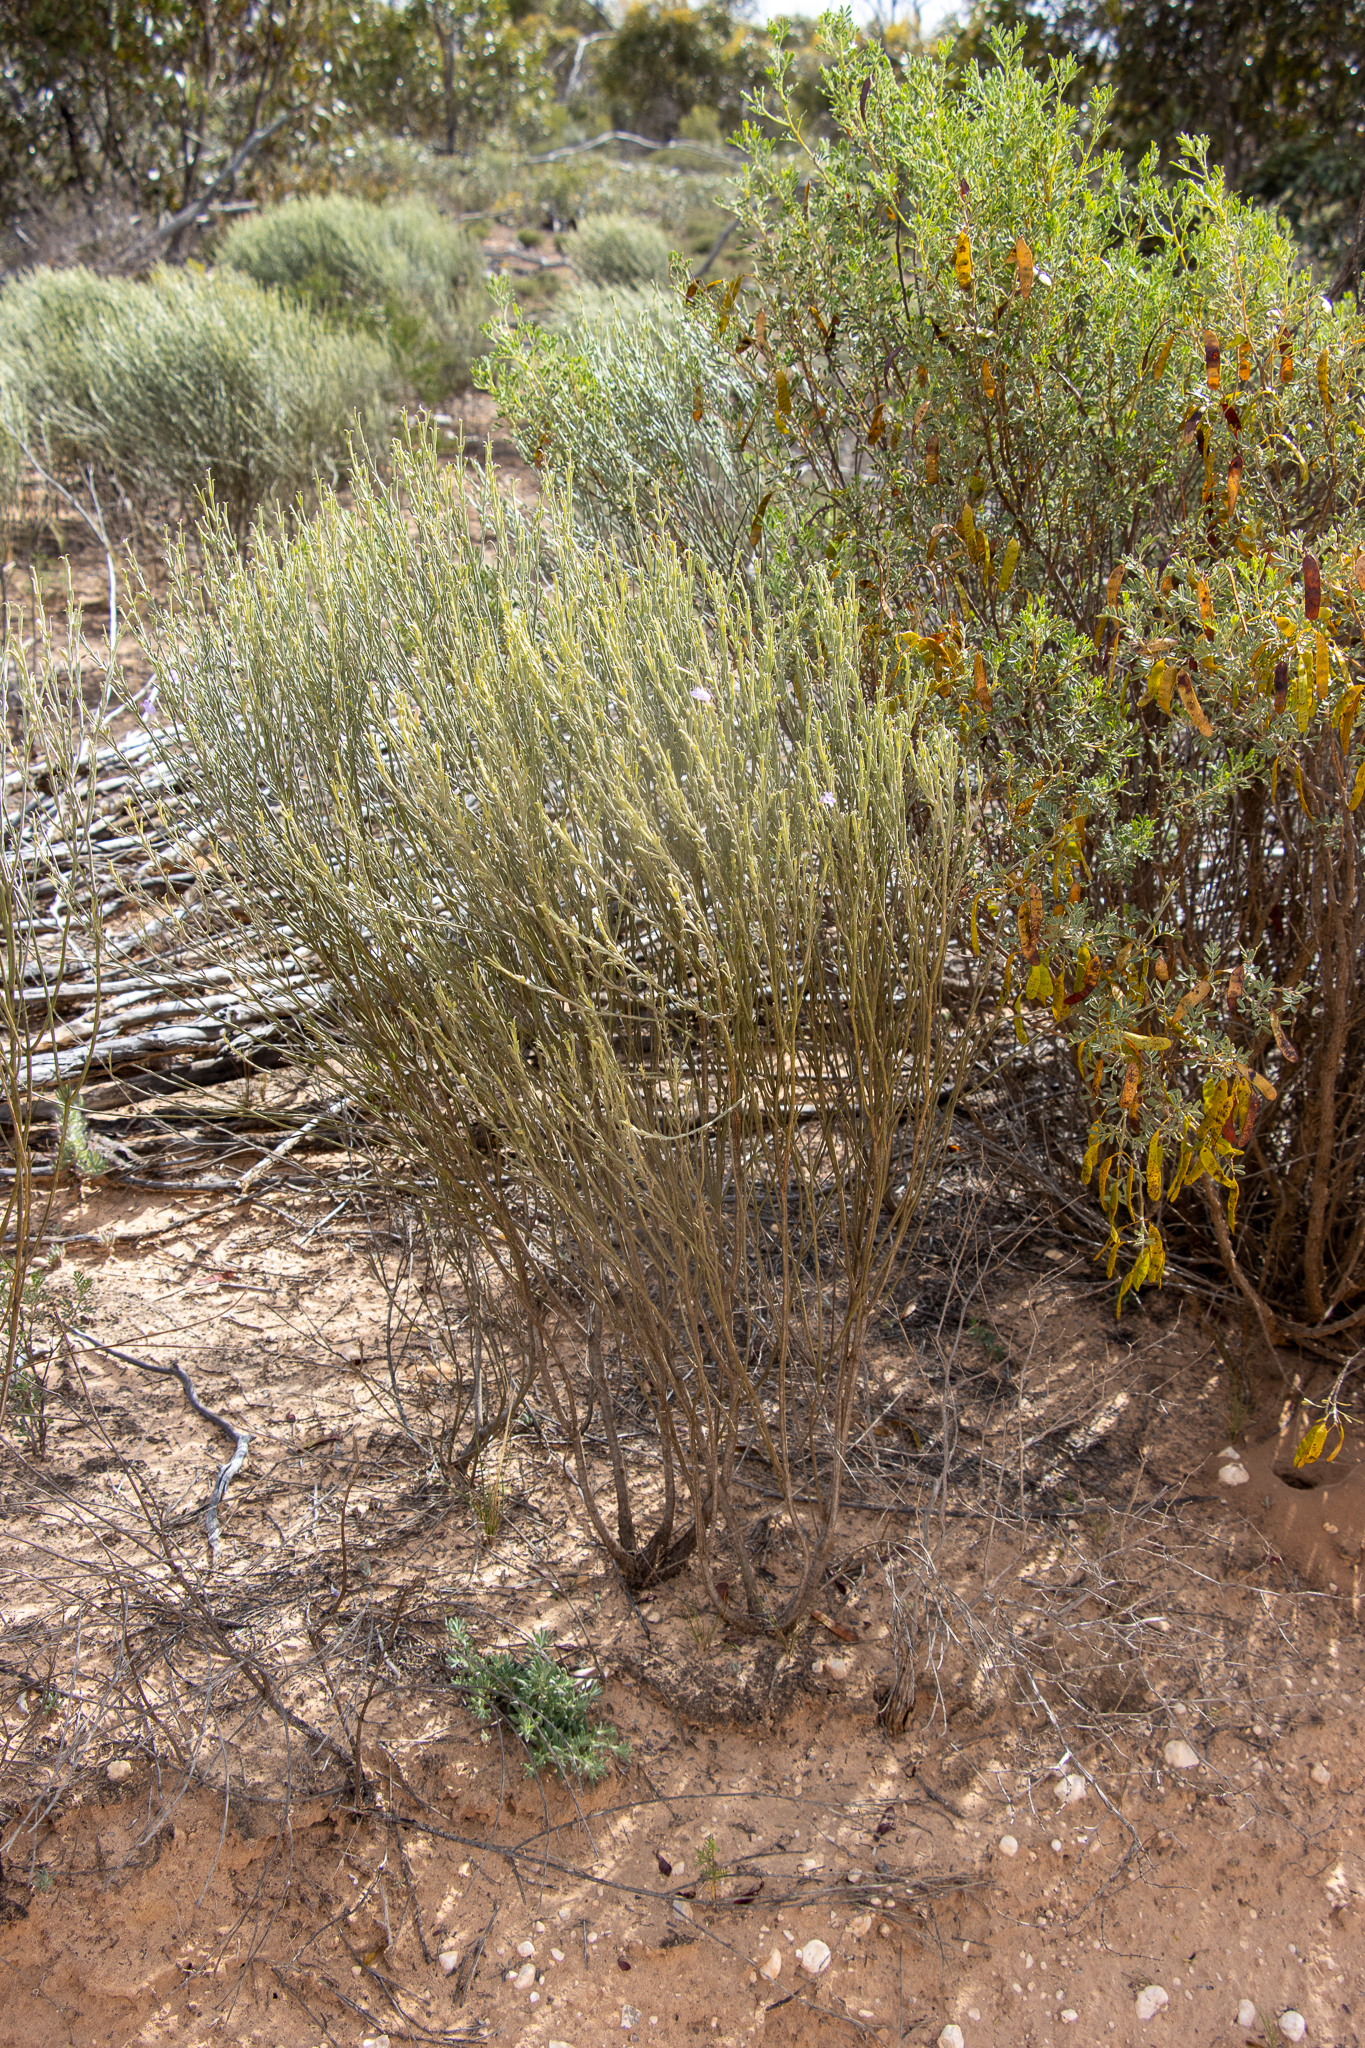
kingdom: Plantae
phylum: Tracheophyta
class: Magnoliopsida
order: Lamiales
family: Scrophulariaceae
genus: Eremophila
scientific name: Eremophila scoparia
